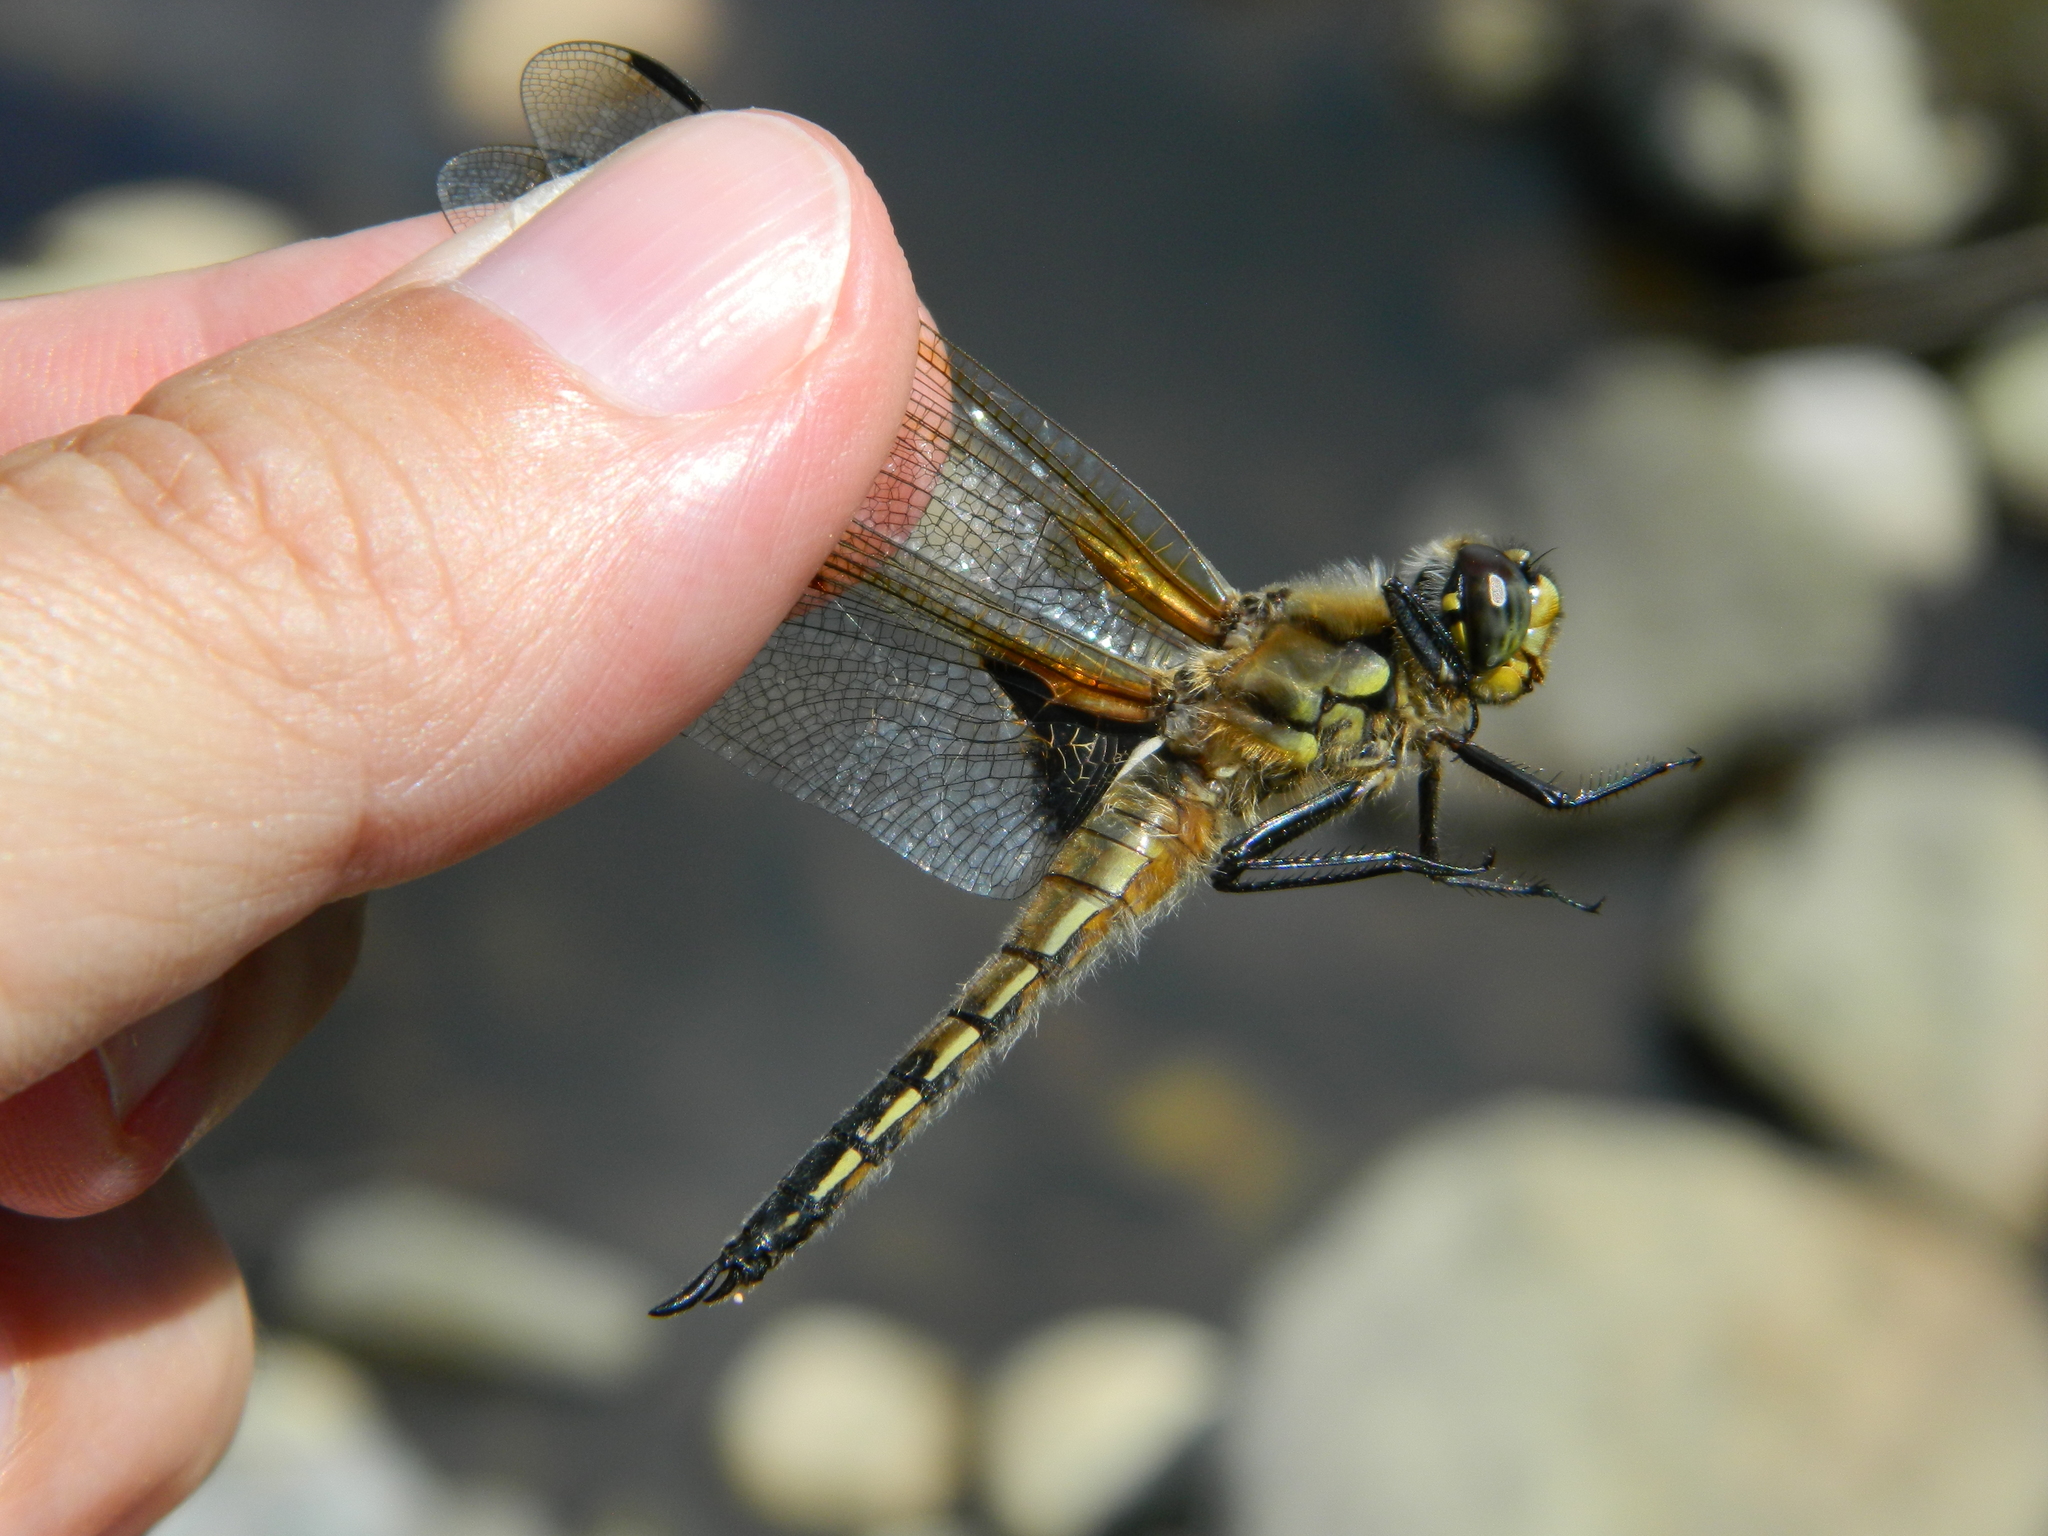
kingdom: Animalia
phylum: Arthropoda
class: Insecta
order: Odonata
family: Libellulidae
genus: Libellula
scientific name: Libellula quadrimaculata
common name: Four-spotted chaser
